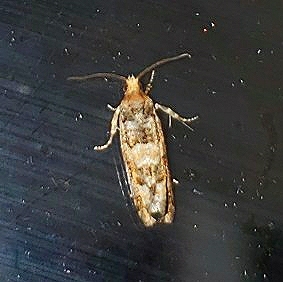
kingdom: Animalia
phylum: Arthropoda
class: Insecta
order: Lepidoptera
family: Tortricidae
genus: Eucopina
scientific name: Eucopina tocullionana
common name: White pinecone borer moth
